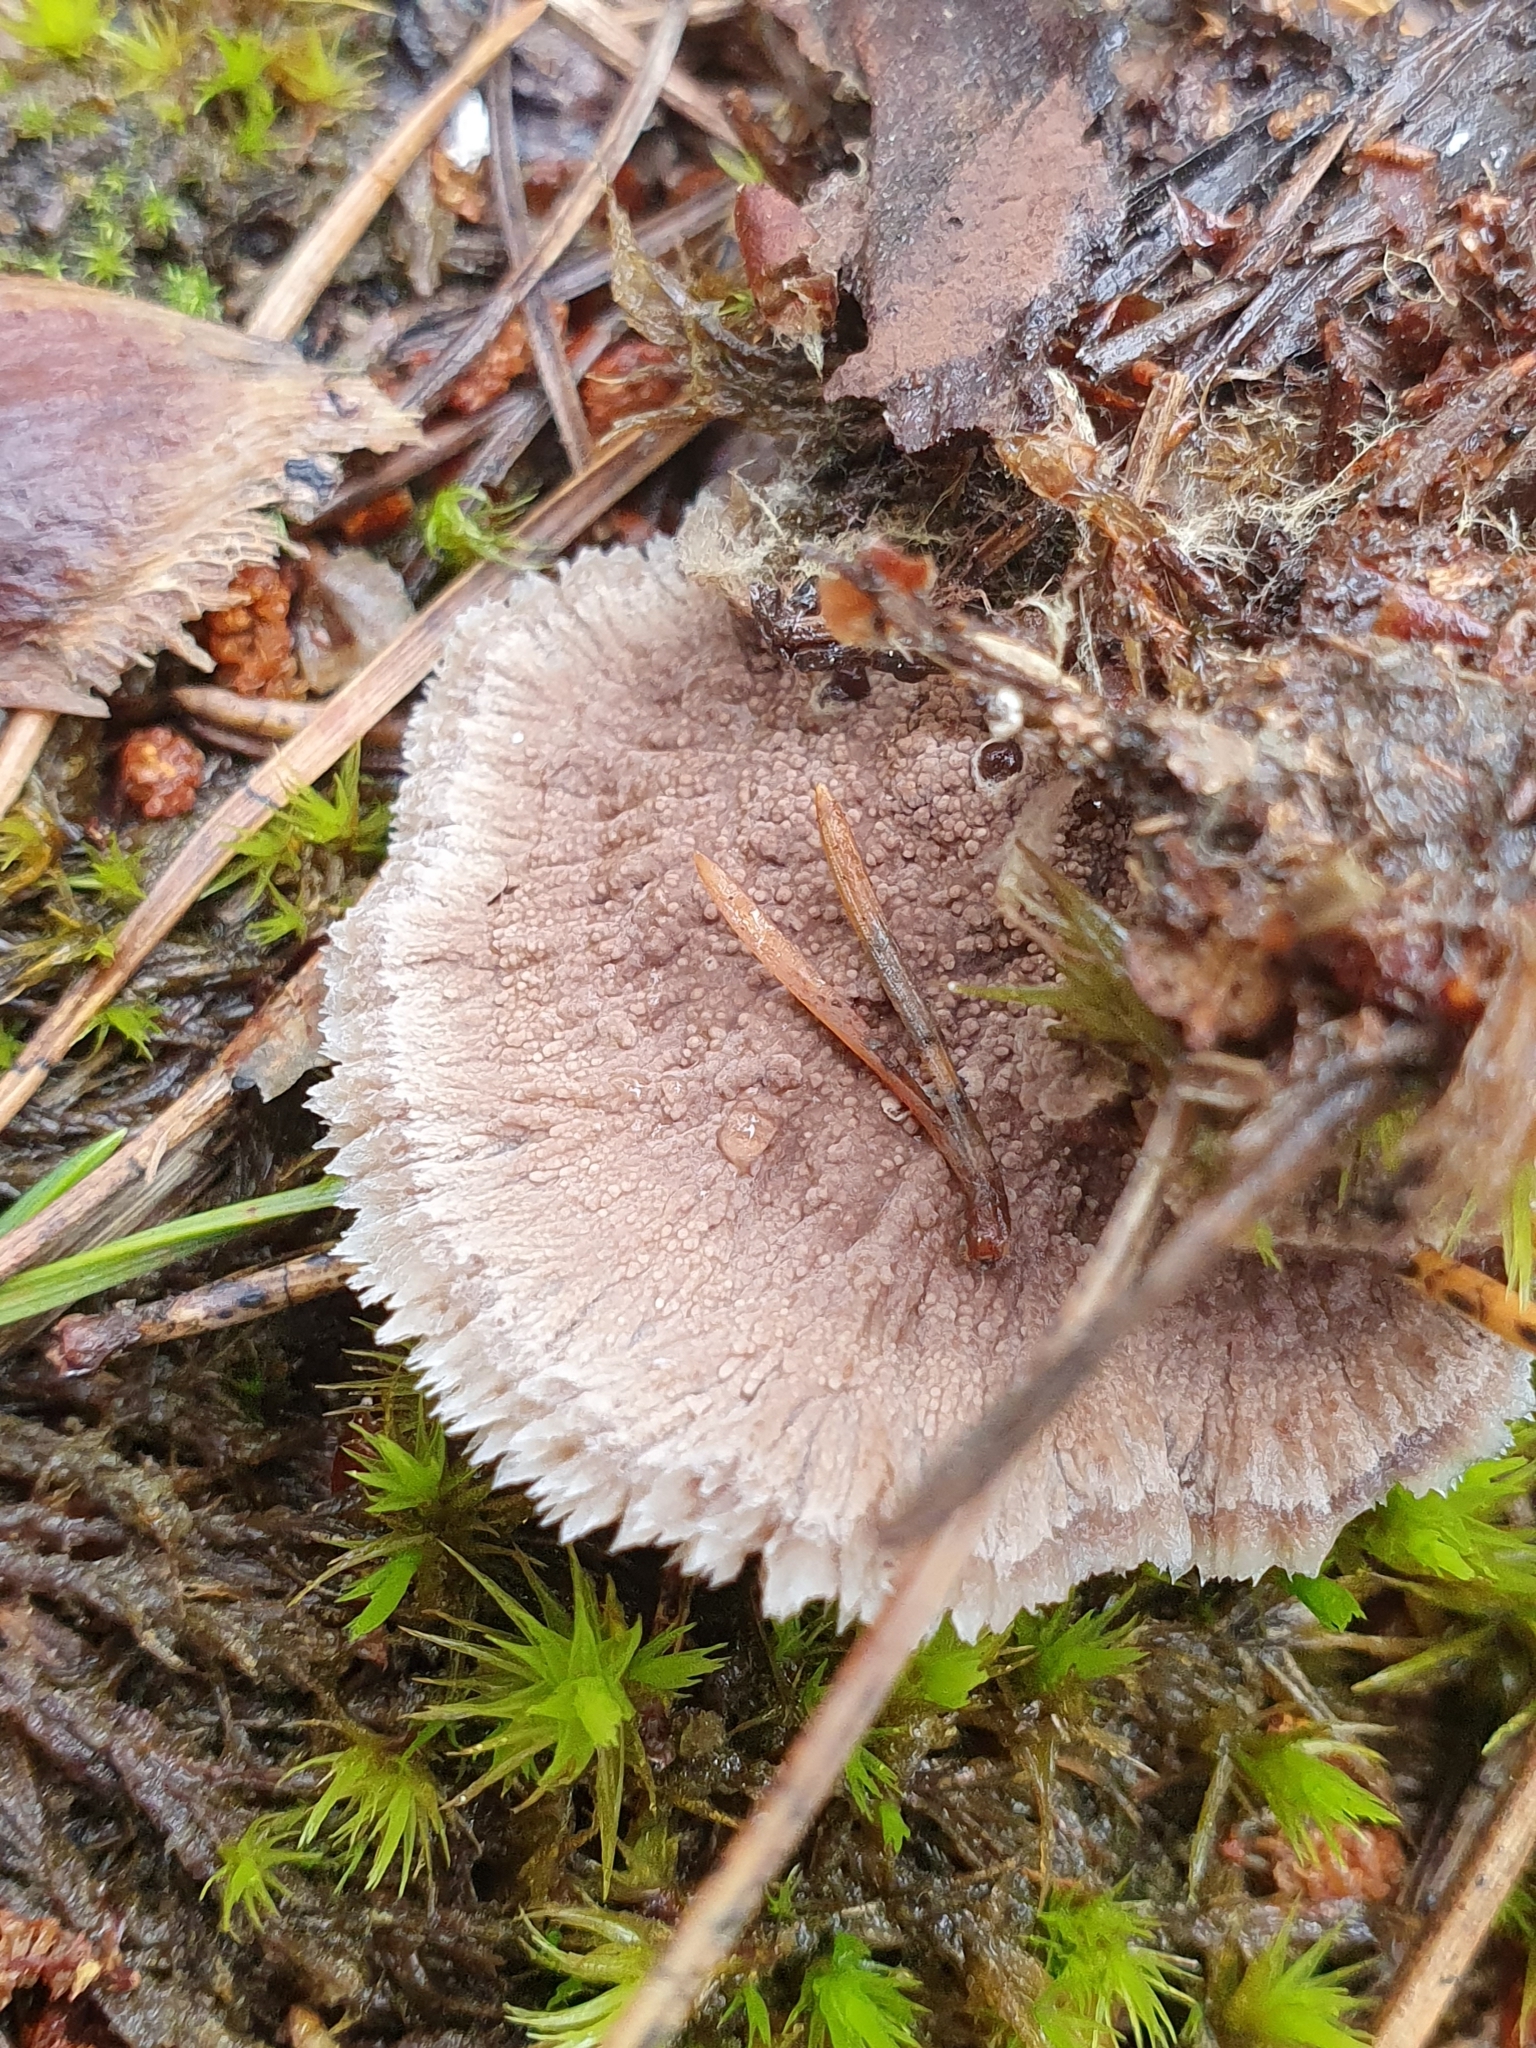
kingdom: Fungi
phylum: Basidiomycota
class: Agaricomycetes
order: Thelephorales
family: Thelephoraceae
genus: Thelephora
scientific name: Thelephora terrestris
